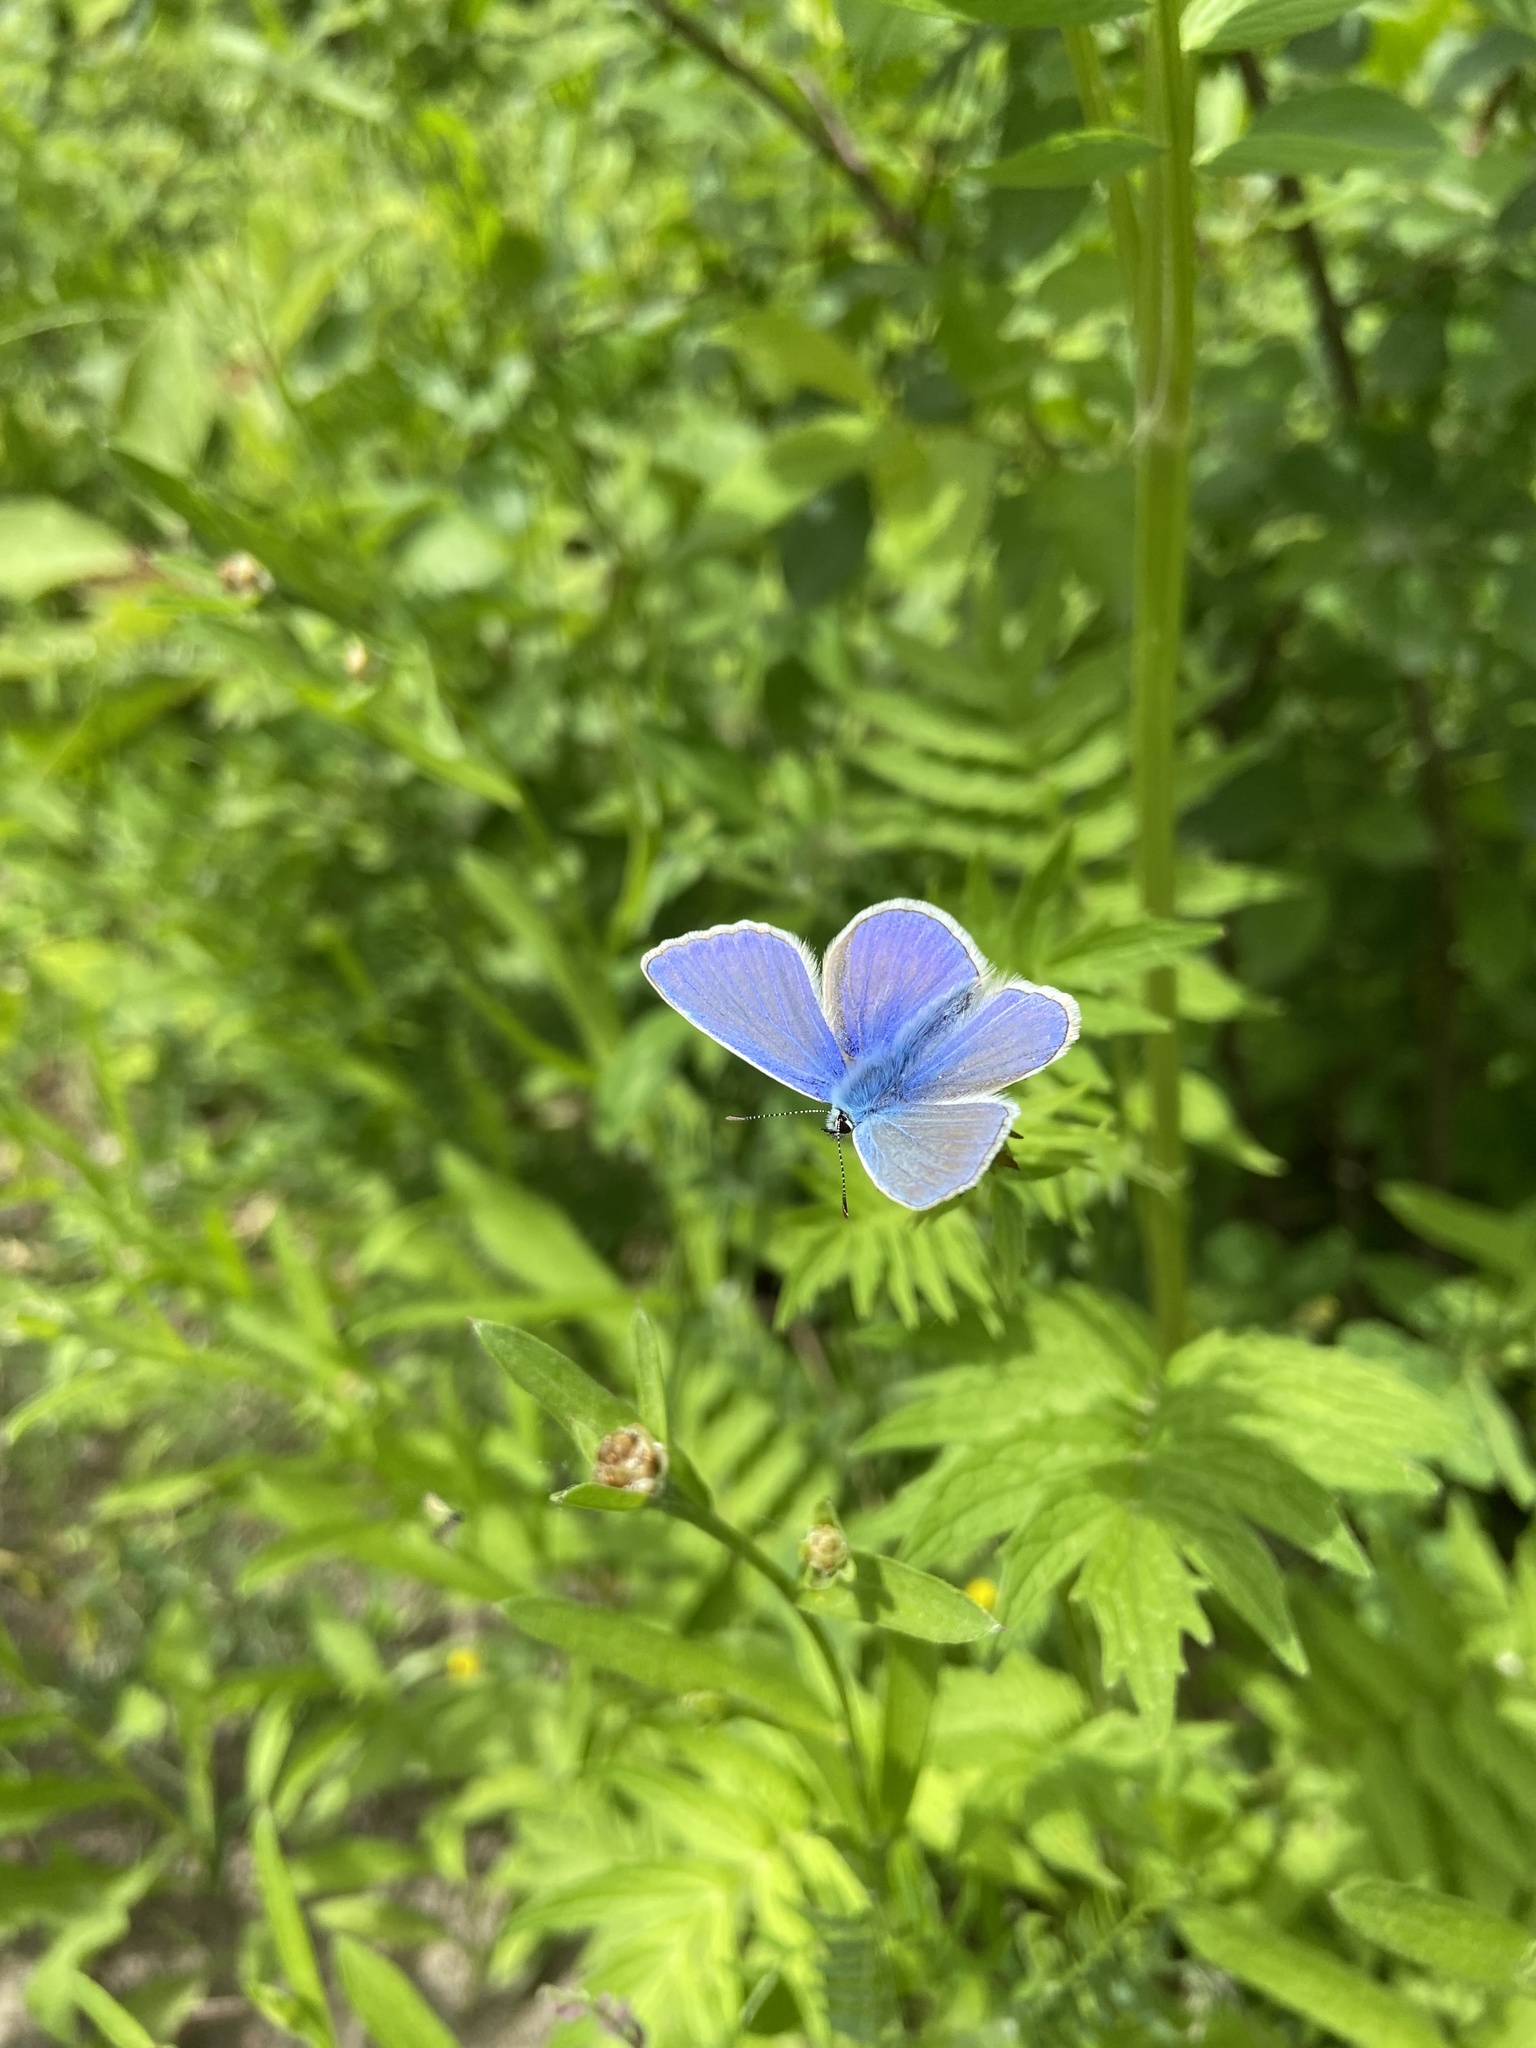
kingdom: Animalia
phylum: Arthropoda
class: Insecta
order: Lepidoptera
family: Lycaenidae
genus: Polyommatus
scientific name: Polyommatus icarus
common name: Common blue
